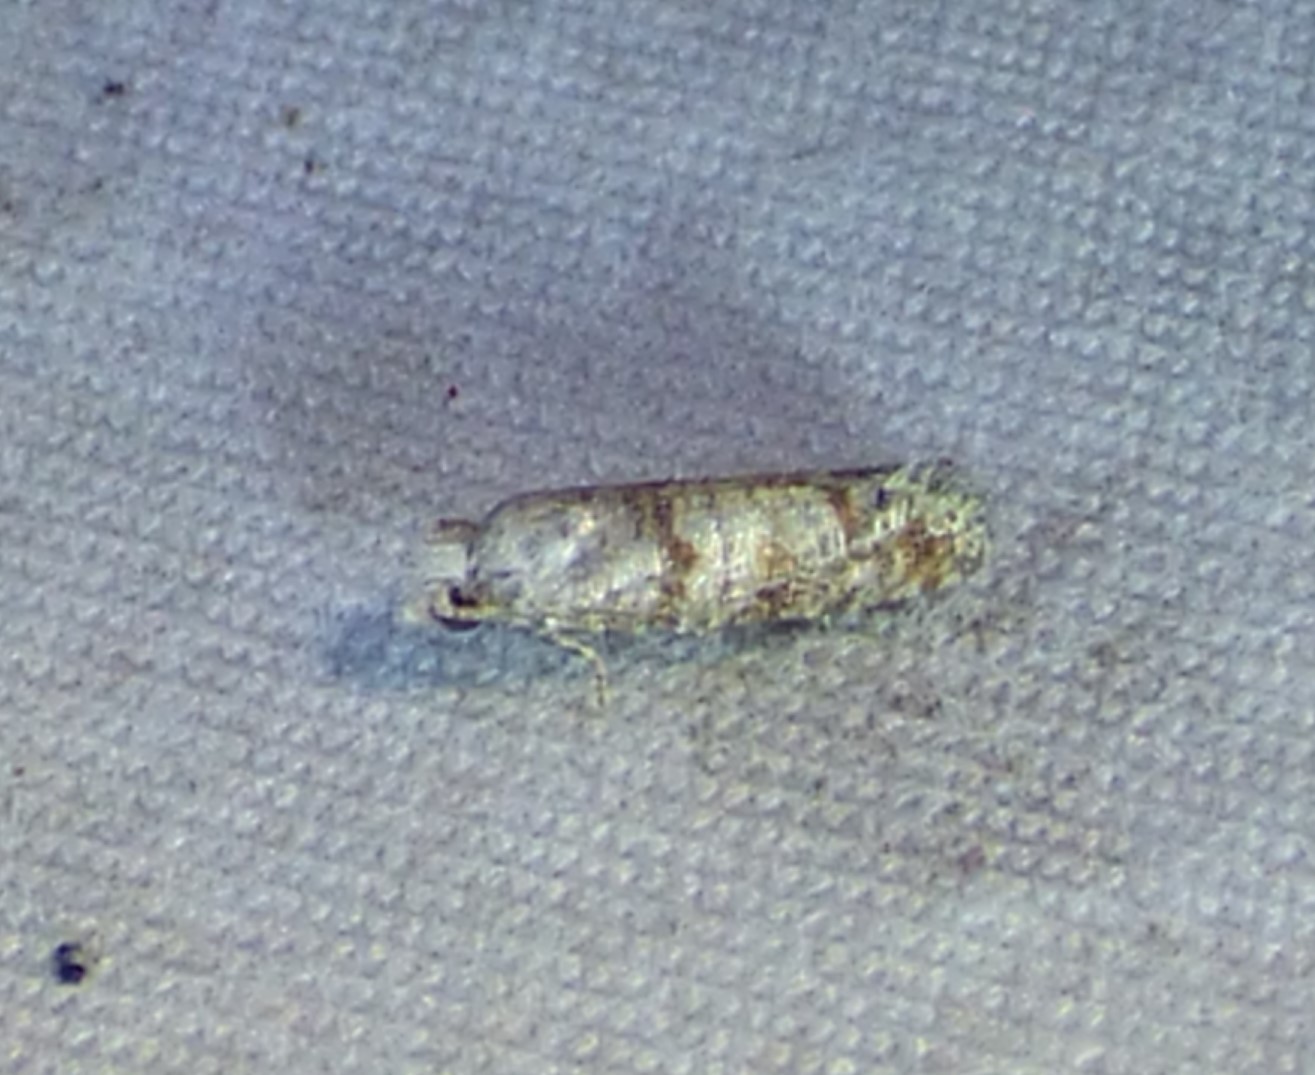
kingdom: Animalia
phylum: Arthropoda
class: Insecta
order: Lepidoptera
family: Tortricidae
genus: Cydia
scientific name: Cydia pomonella
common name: Codling moth
